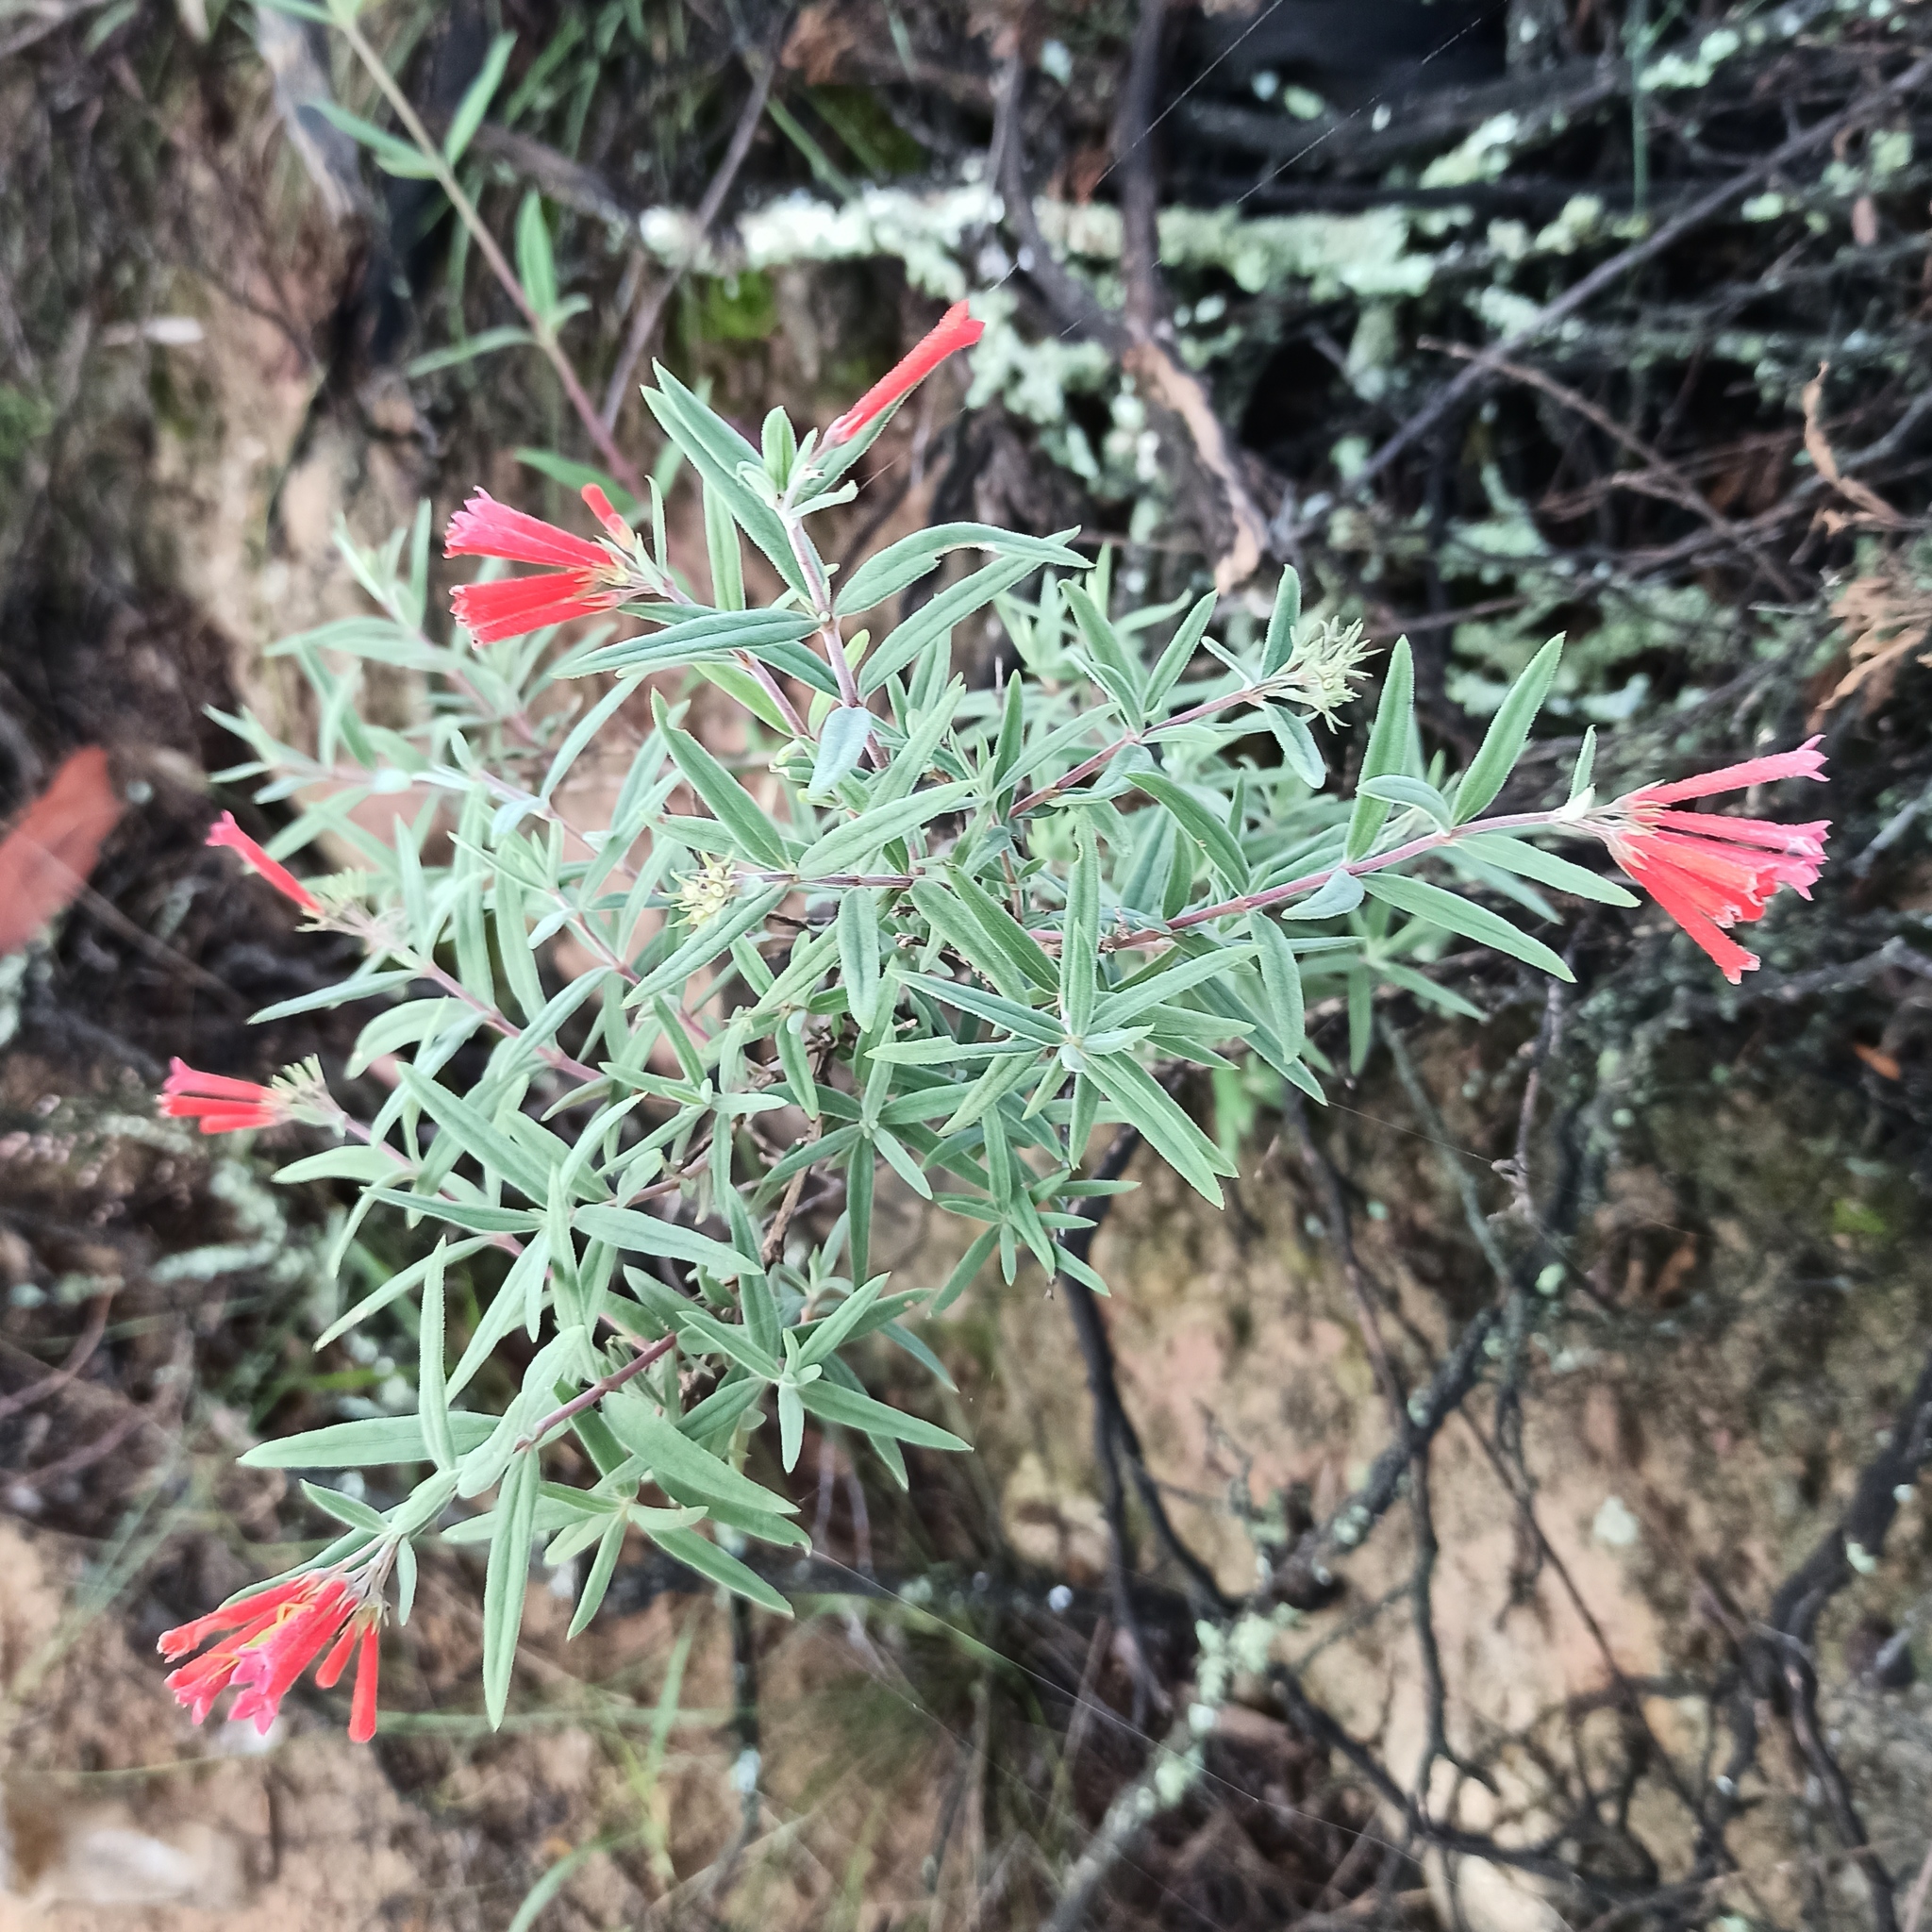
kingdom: Plantae
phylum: Tracheophyta
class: Magnoliopsida
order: Gentianales
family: Rubiaceae
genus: Bouvardia
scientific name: Bouvardia ternifolia
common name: Scarlet bouvardia
